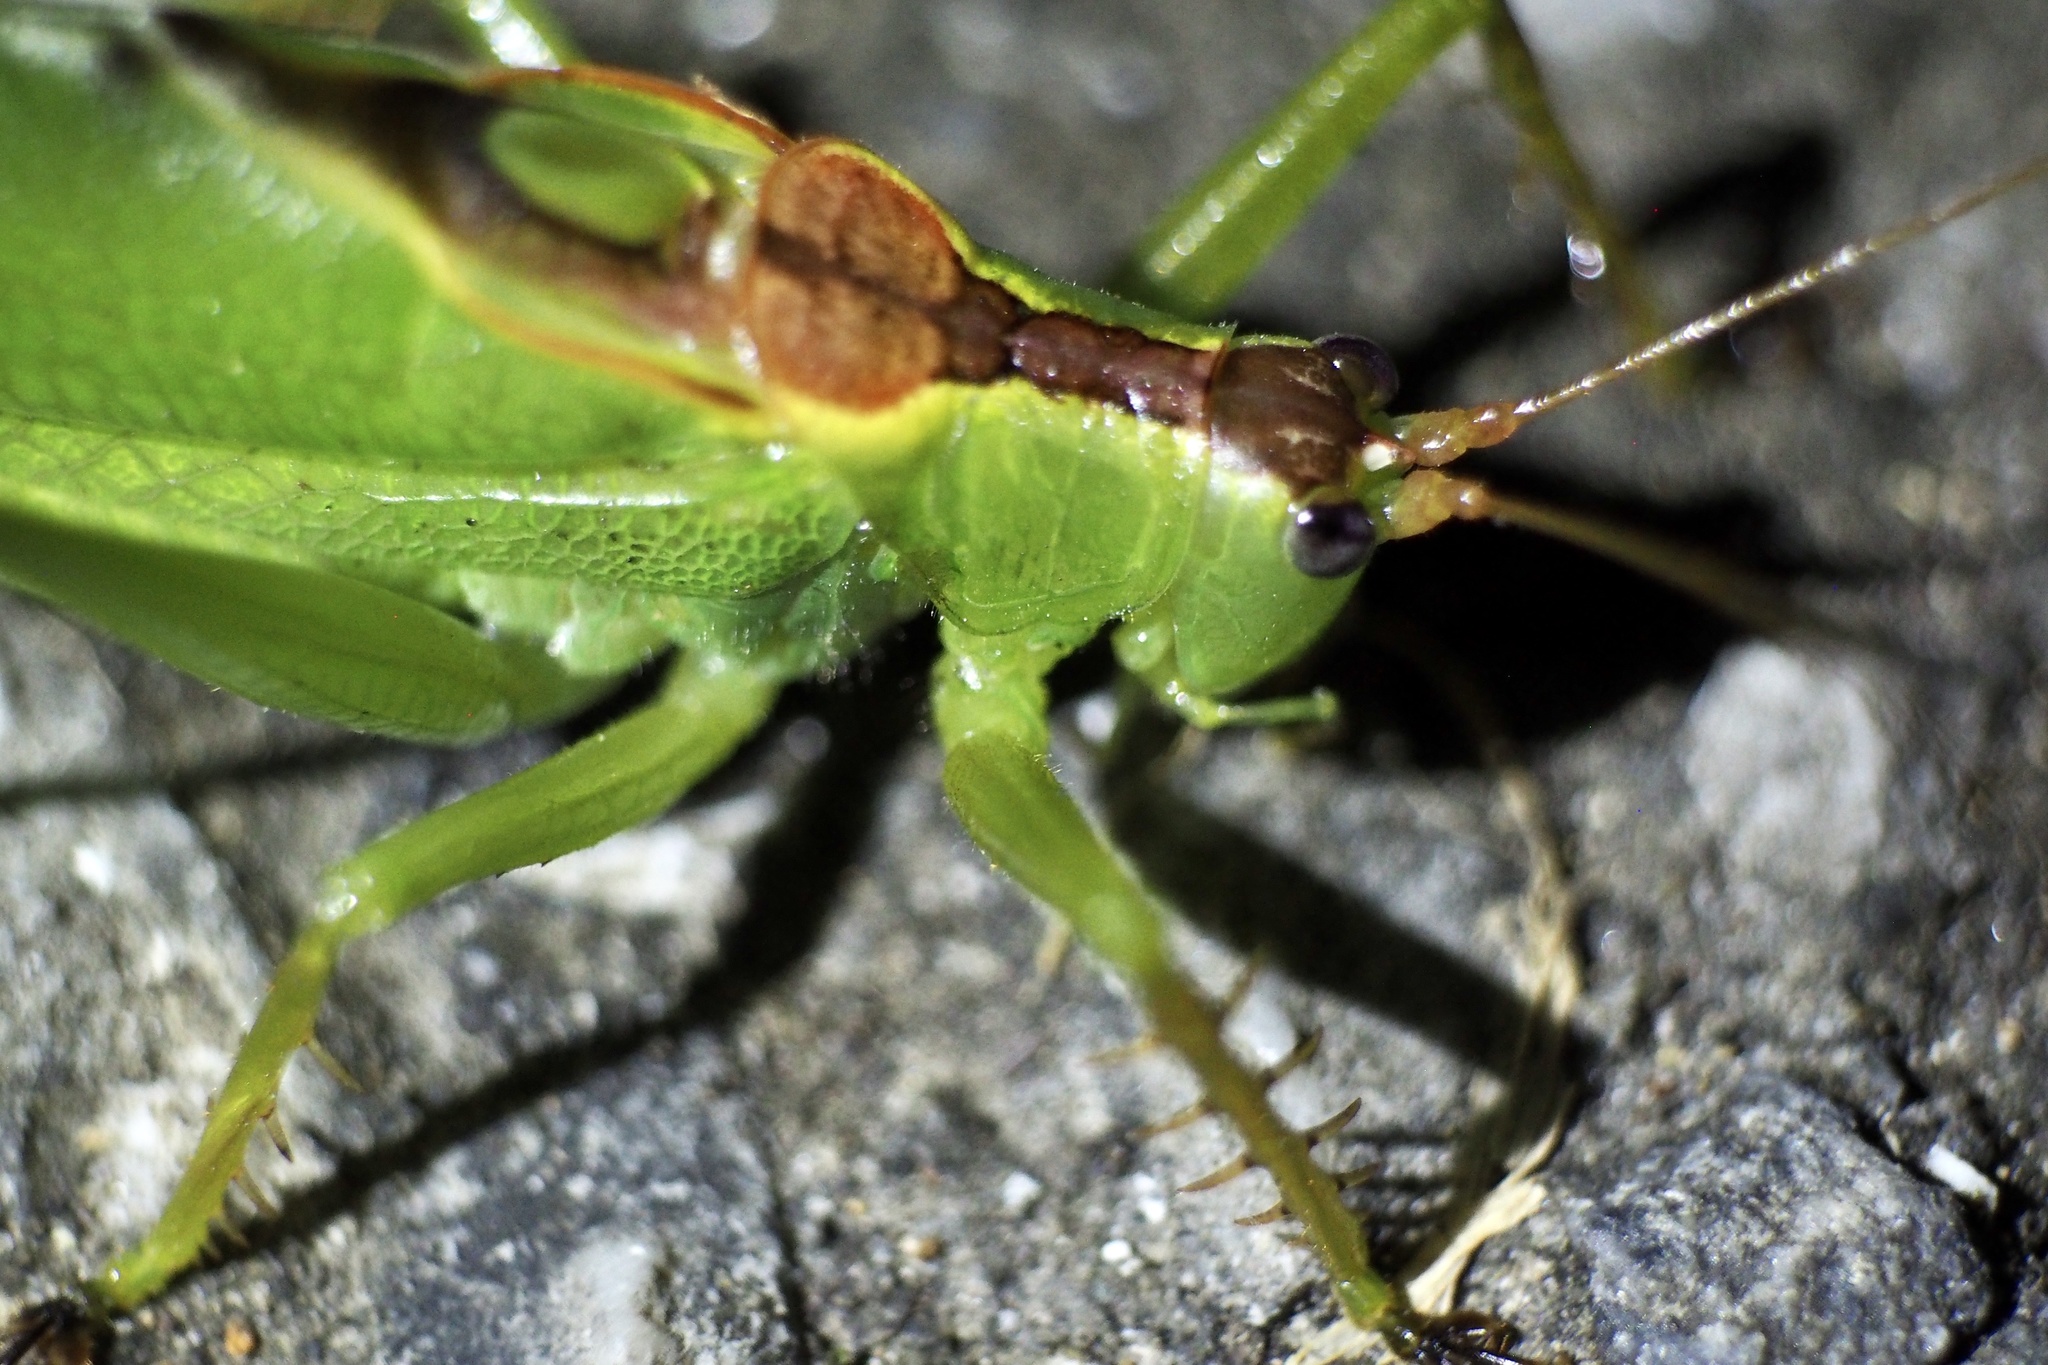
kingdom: Animalia
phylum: Arthropoda
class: Insecta
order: Orthoptera
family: Tettigoniidae
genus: Hexacentrus
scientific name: Hexacentrus hareyamai
